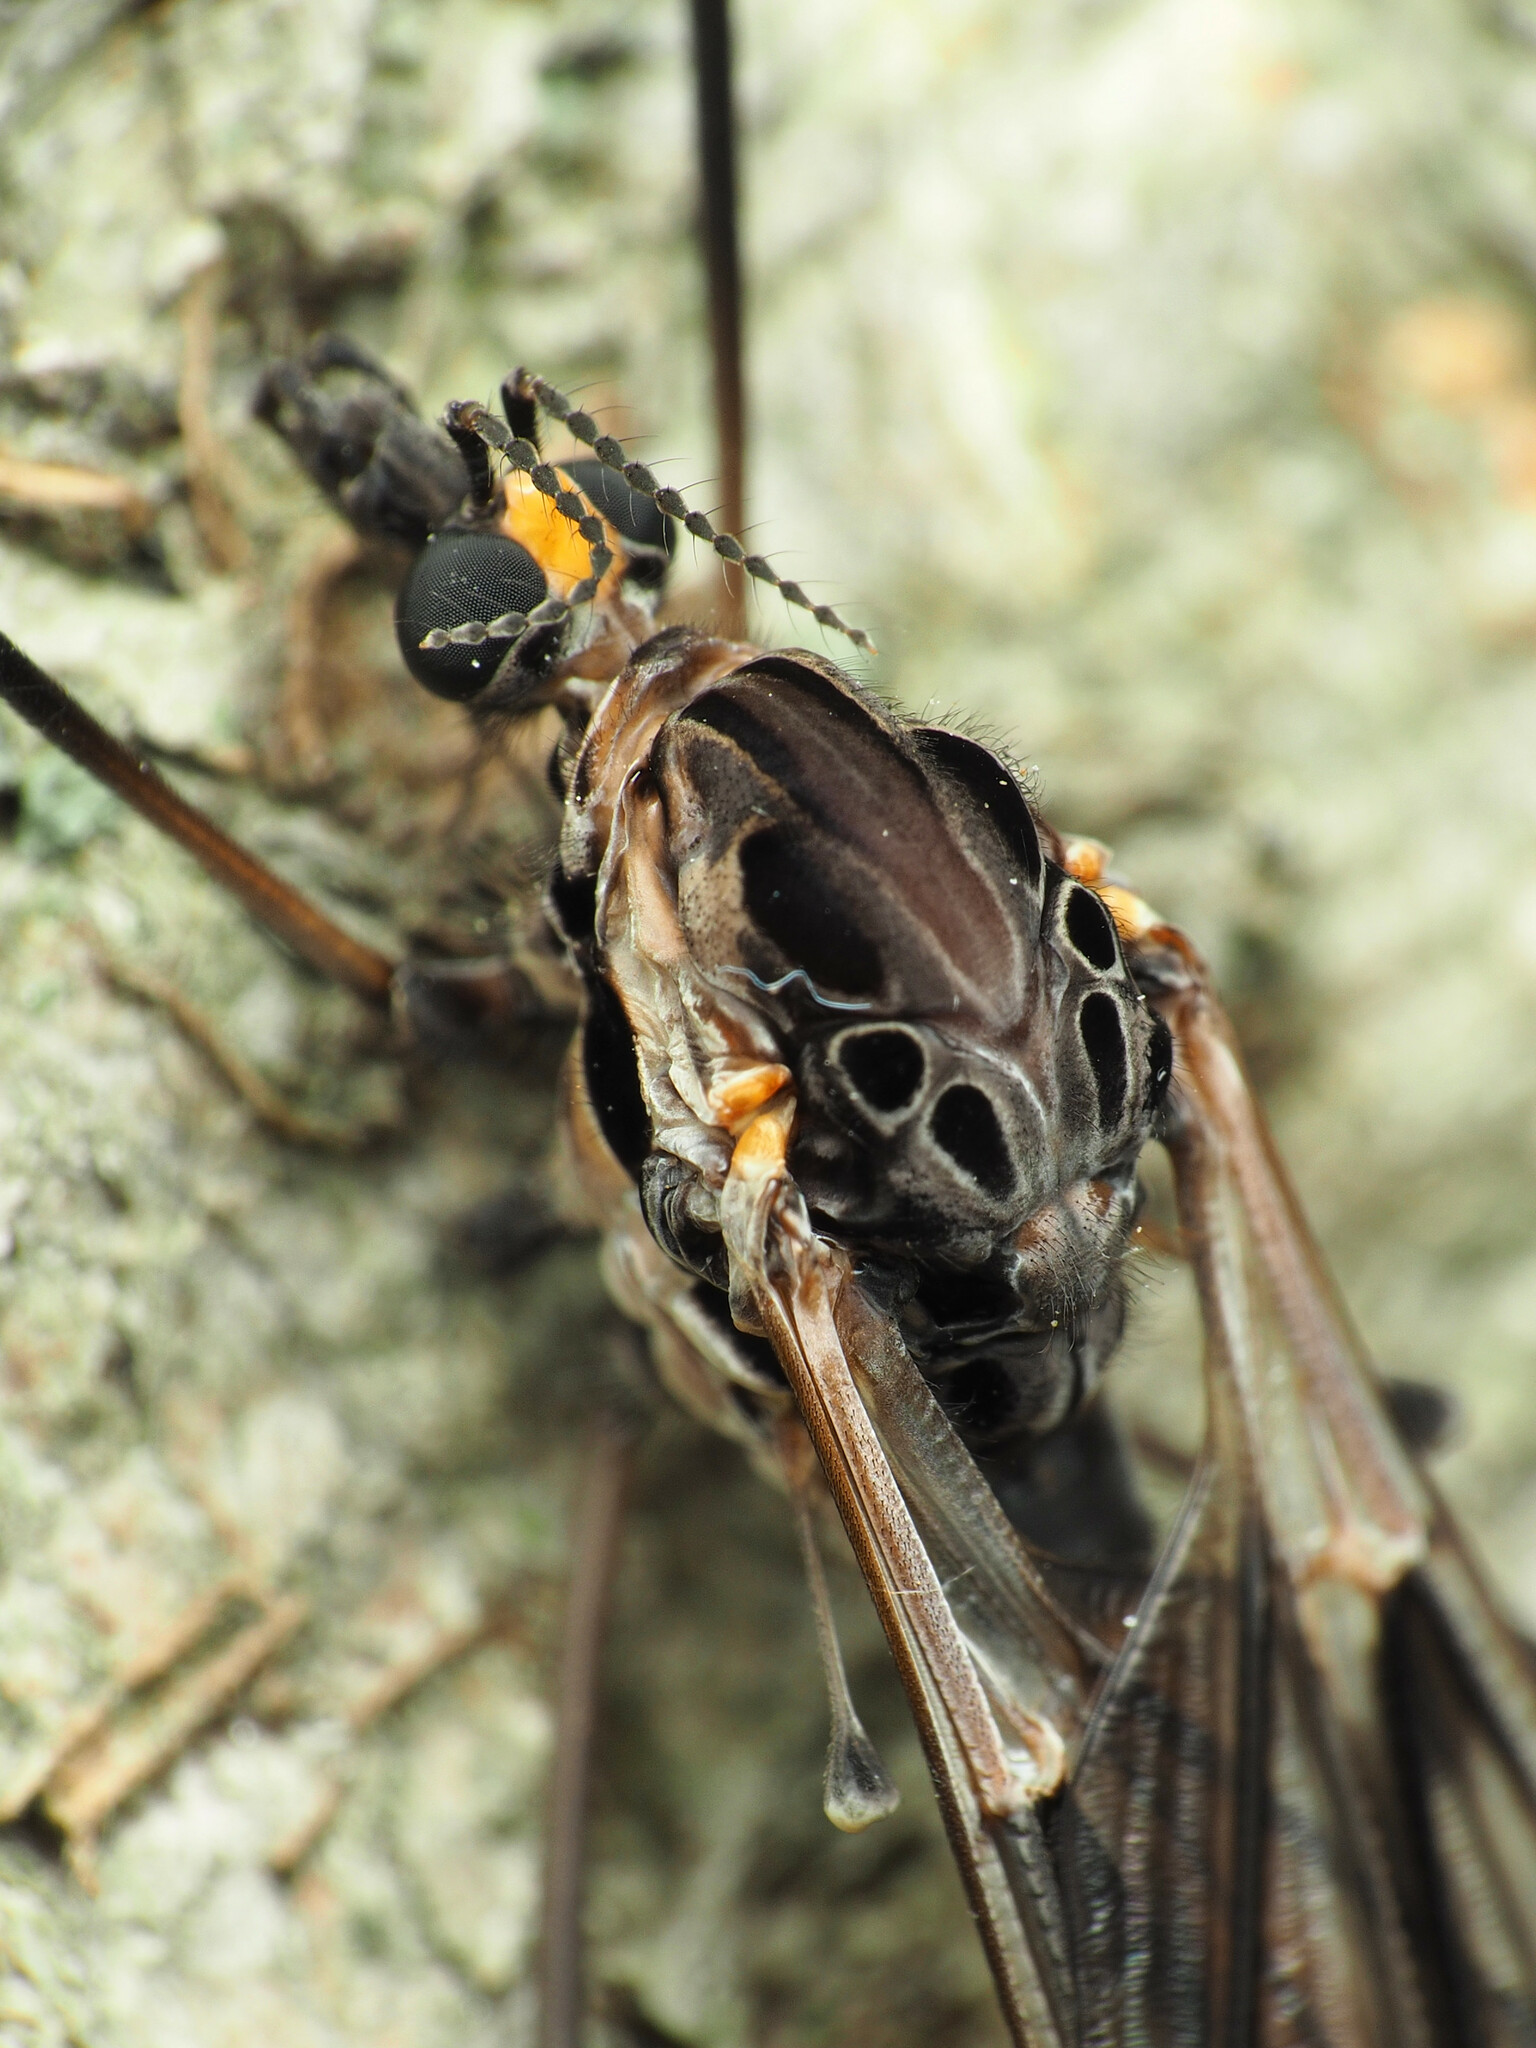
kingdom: Animalia
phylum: Arthropoda
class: Insecta
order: Diptera
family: Tipulidae
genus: Tipula
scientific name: Tipula metacomet
